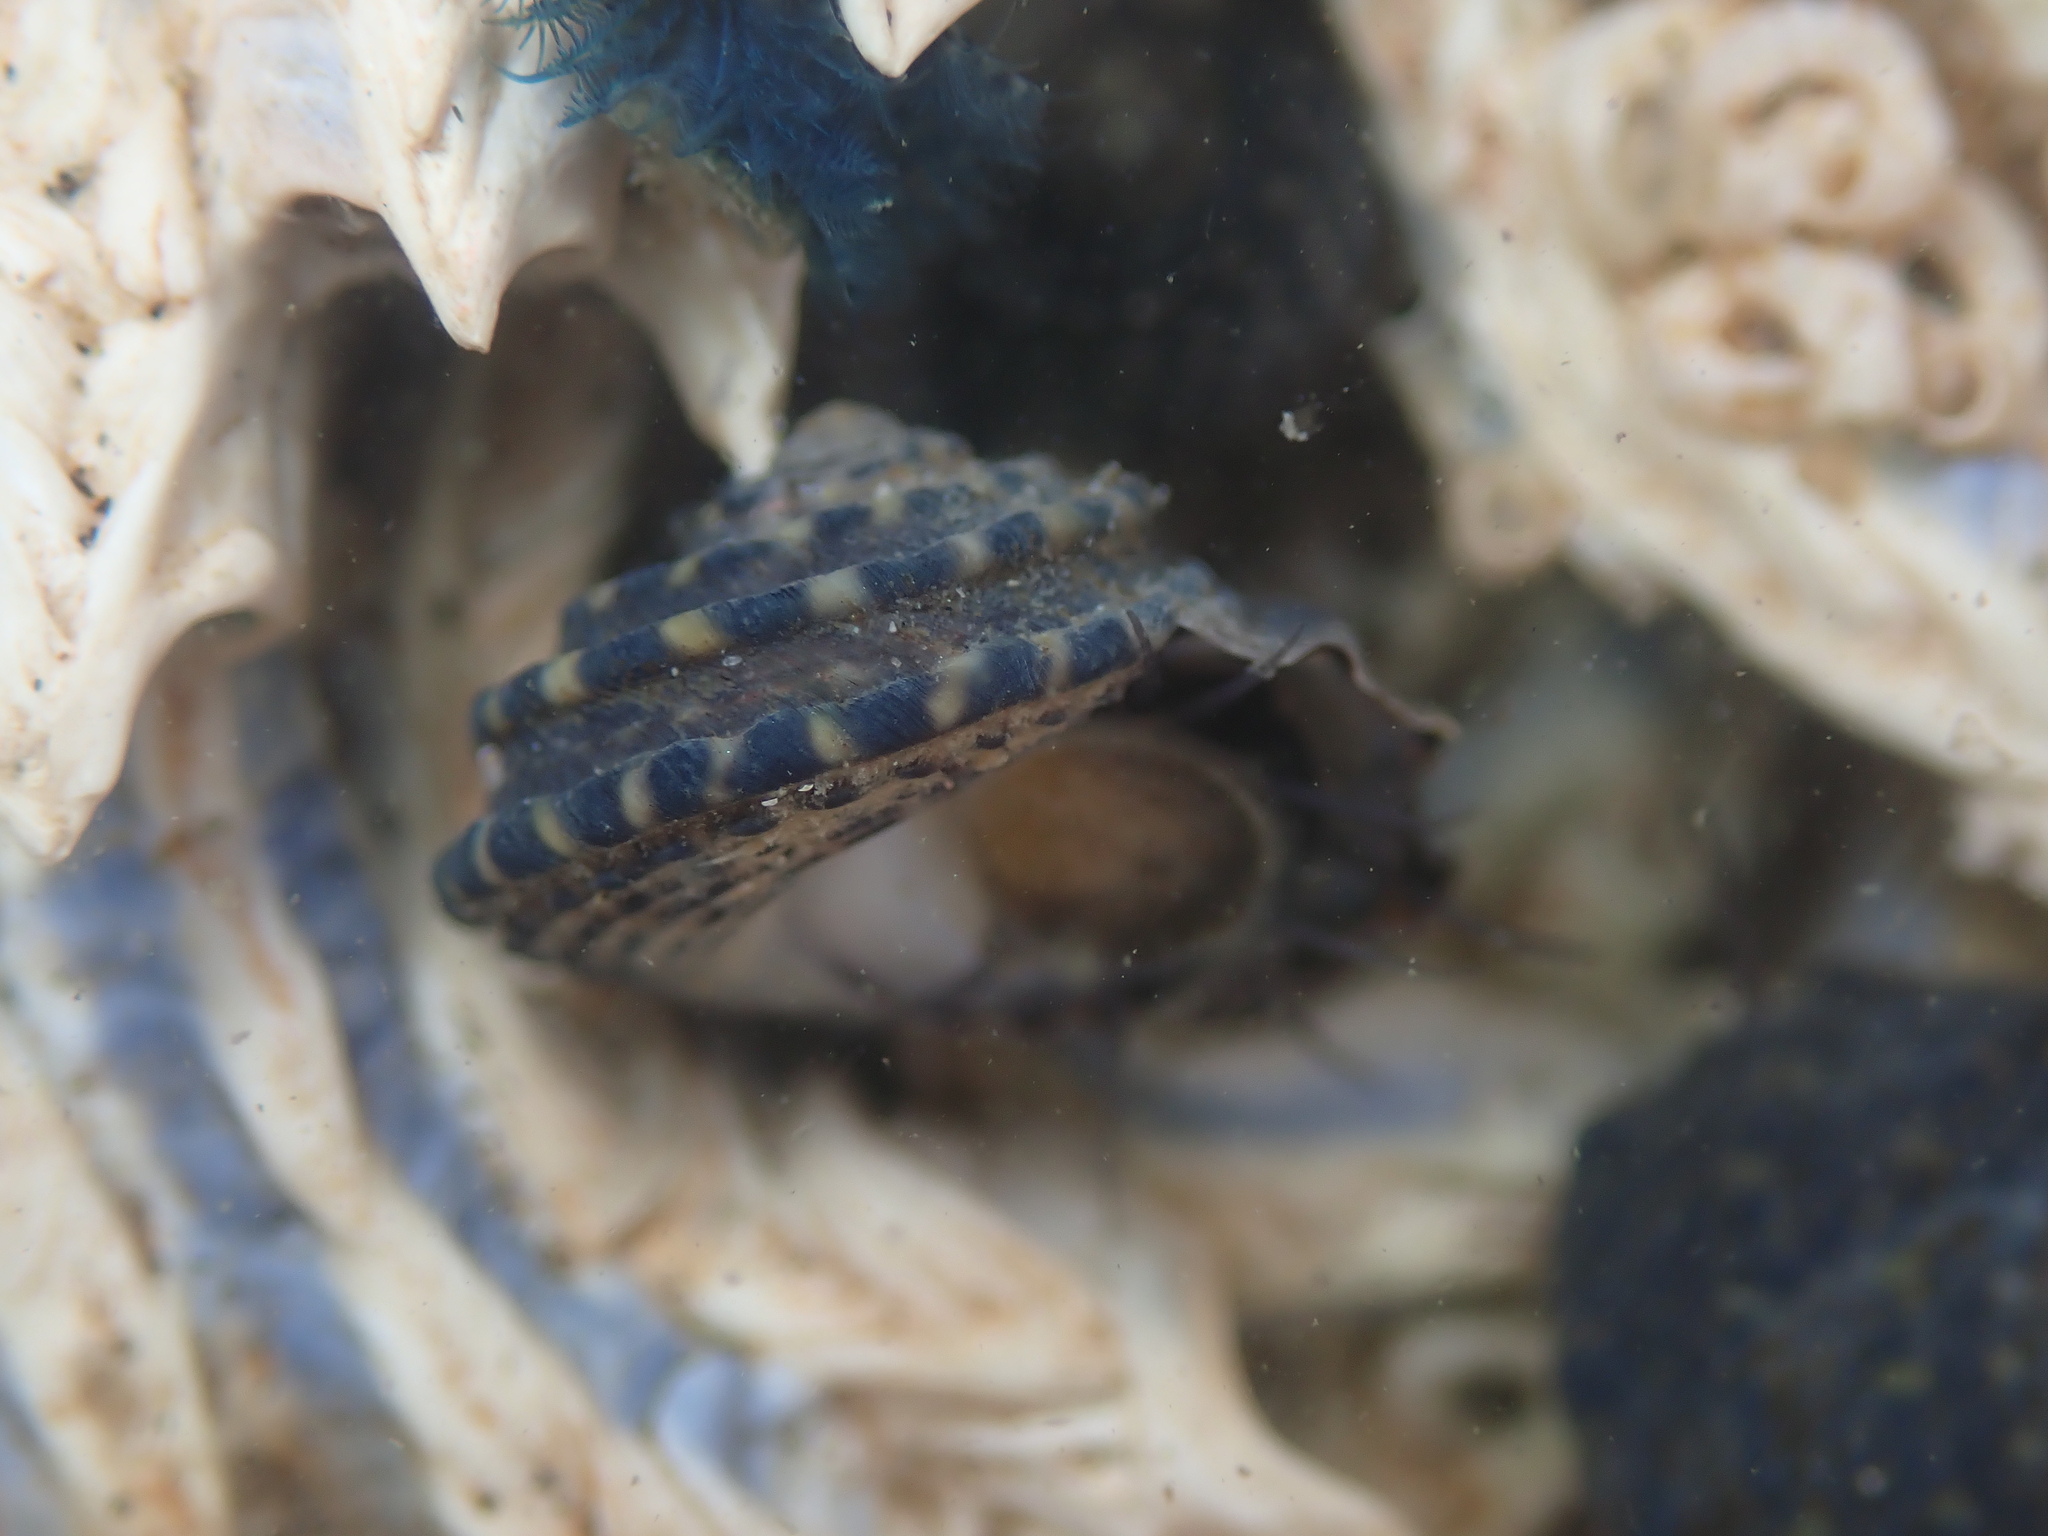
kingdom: Animalia
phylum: Mollusca
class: Gastropoda
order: Trochida
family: Trochidae
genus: Diloma
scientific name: Diloma bicanaliculatum
